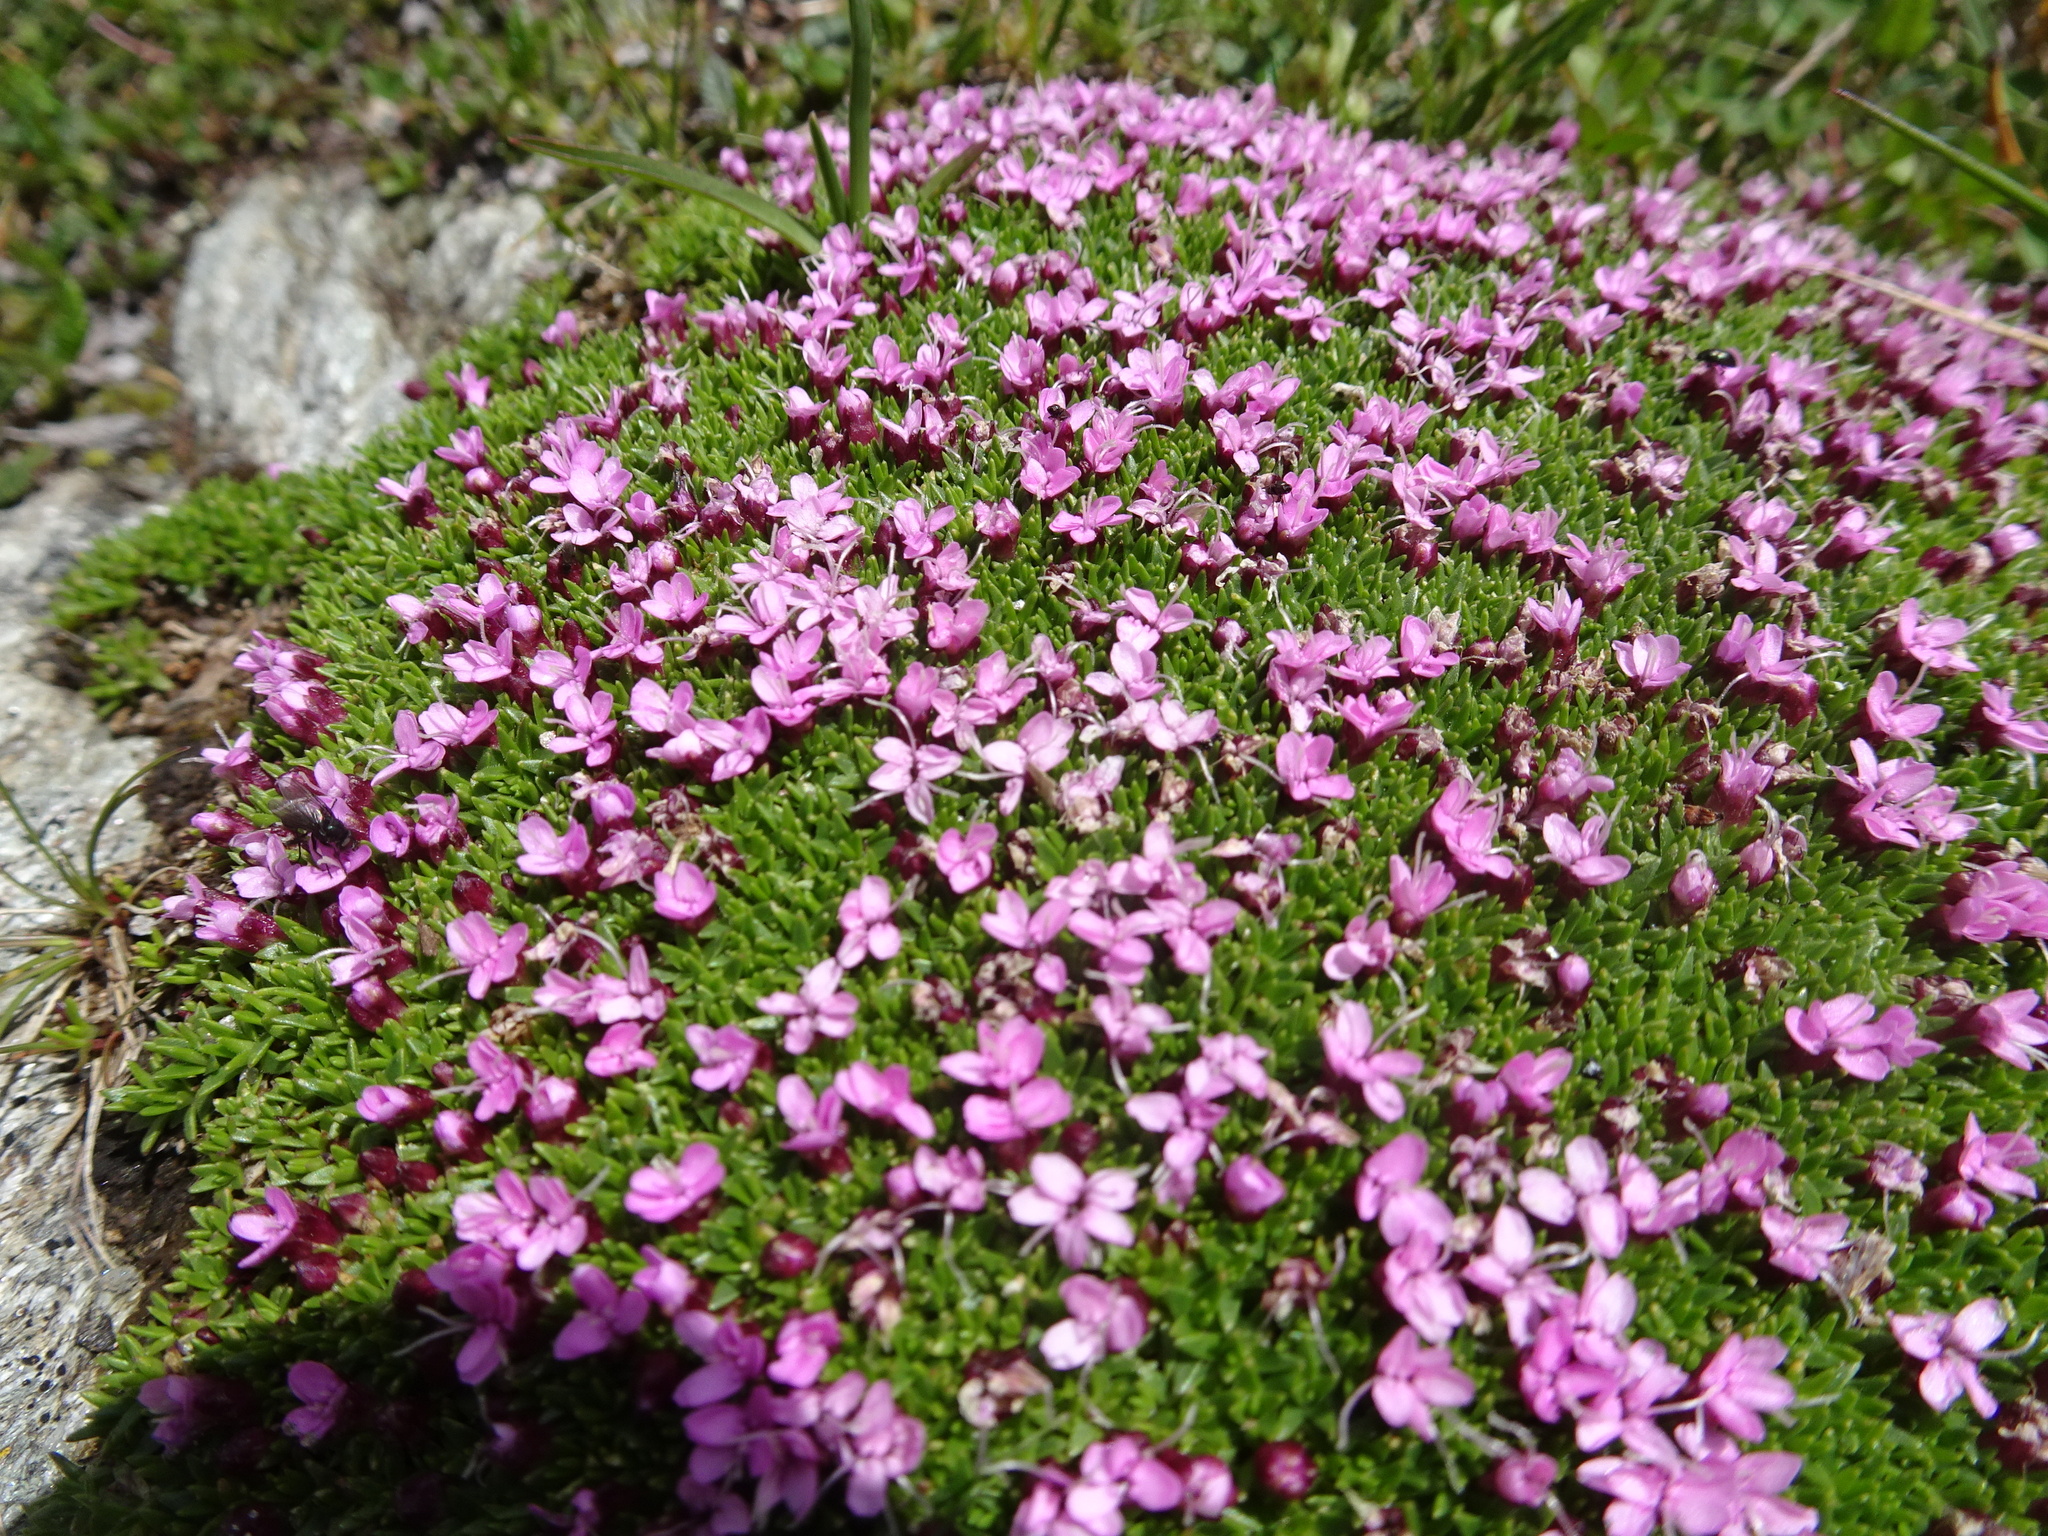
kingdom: Plantae
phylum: Tracheophyta
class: Magnoliopsida
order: Caryophyllales
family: Caryophyllaceae
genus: Silene
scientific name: Silene acaulis
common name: Moss campion
